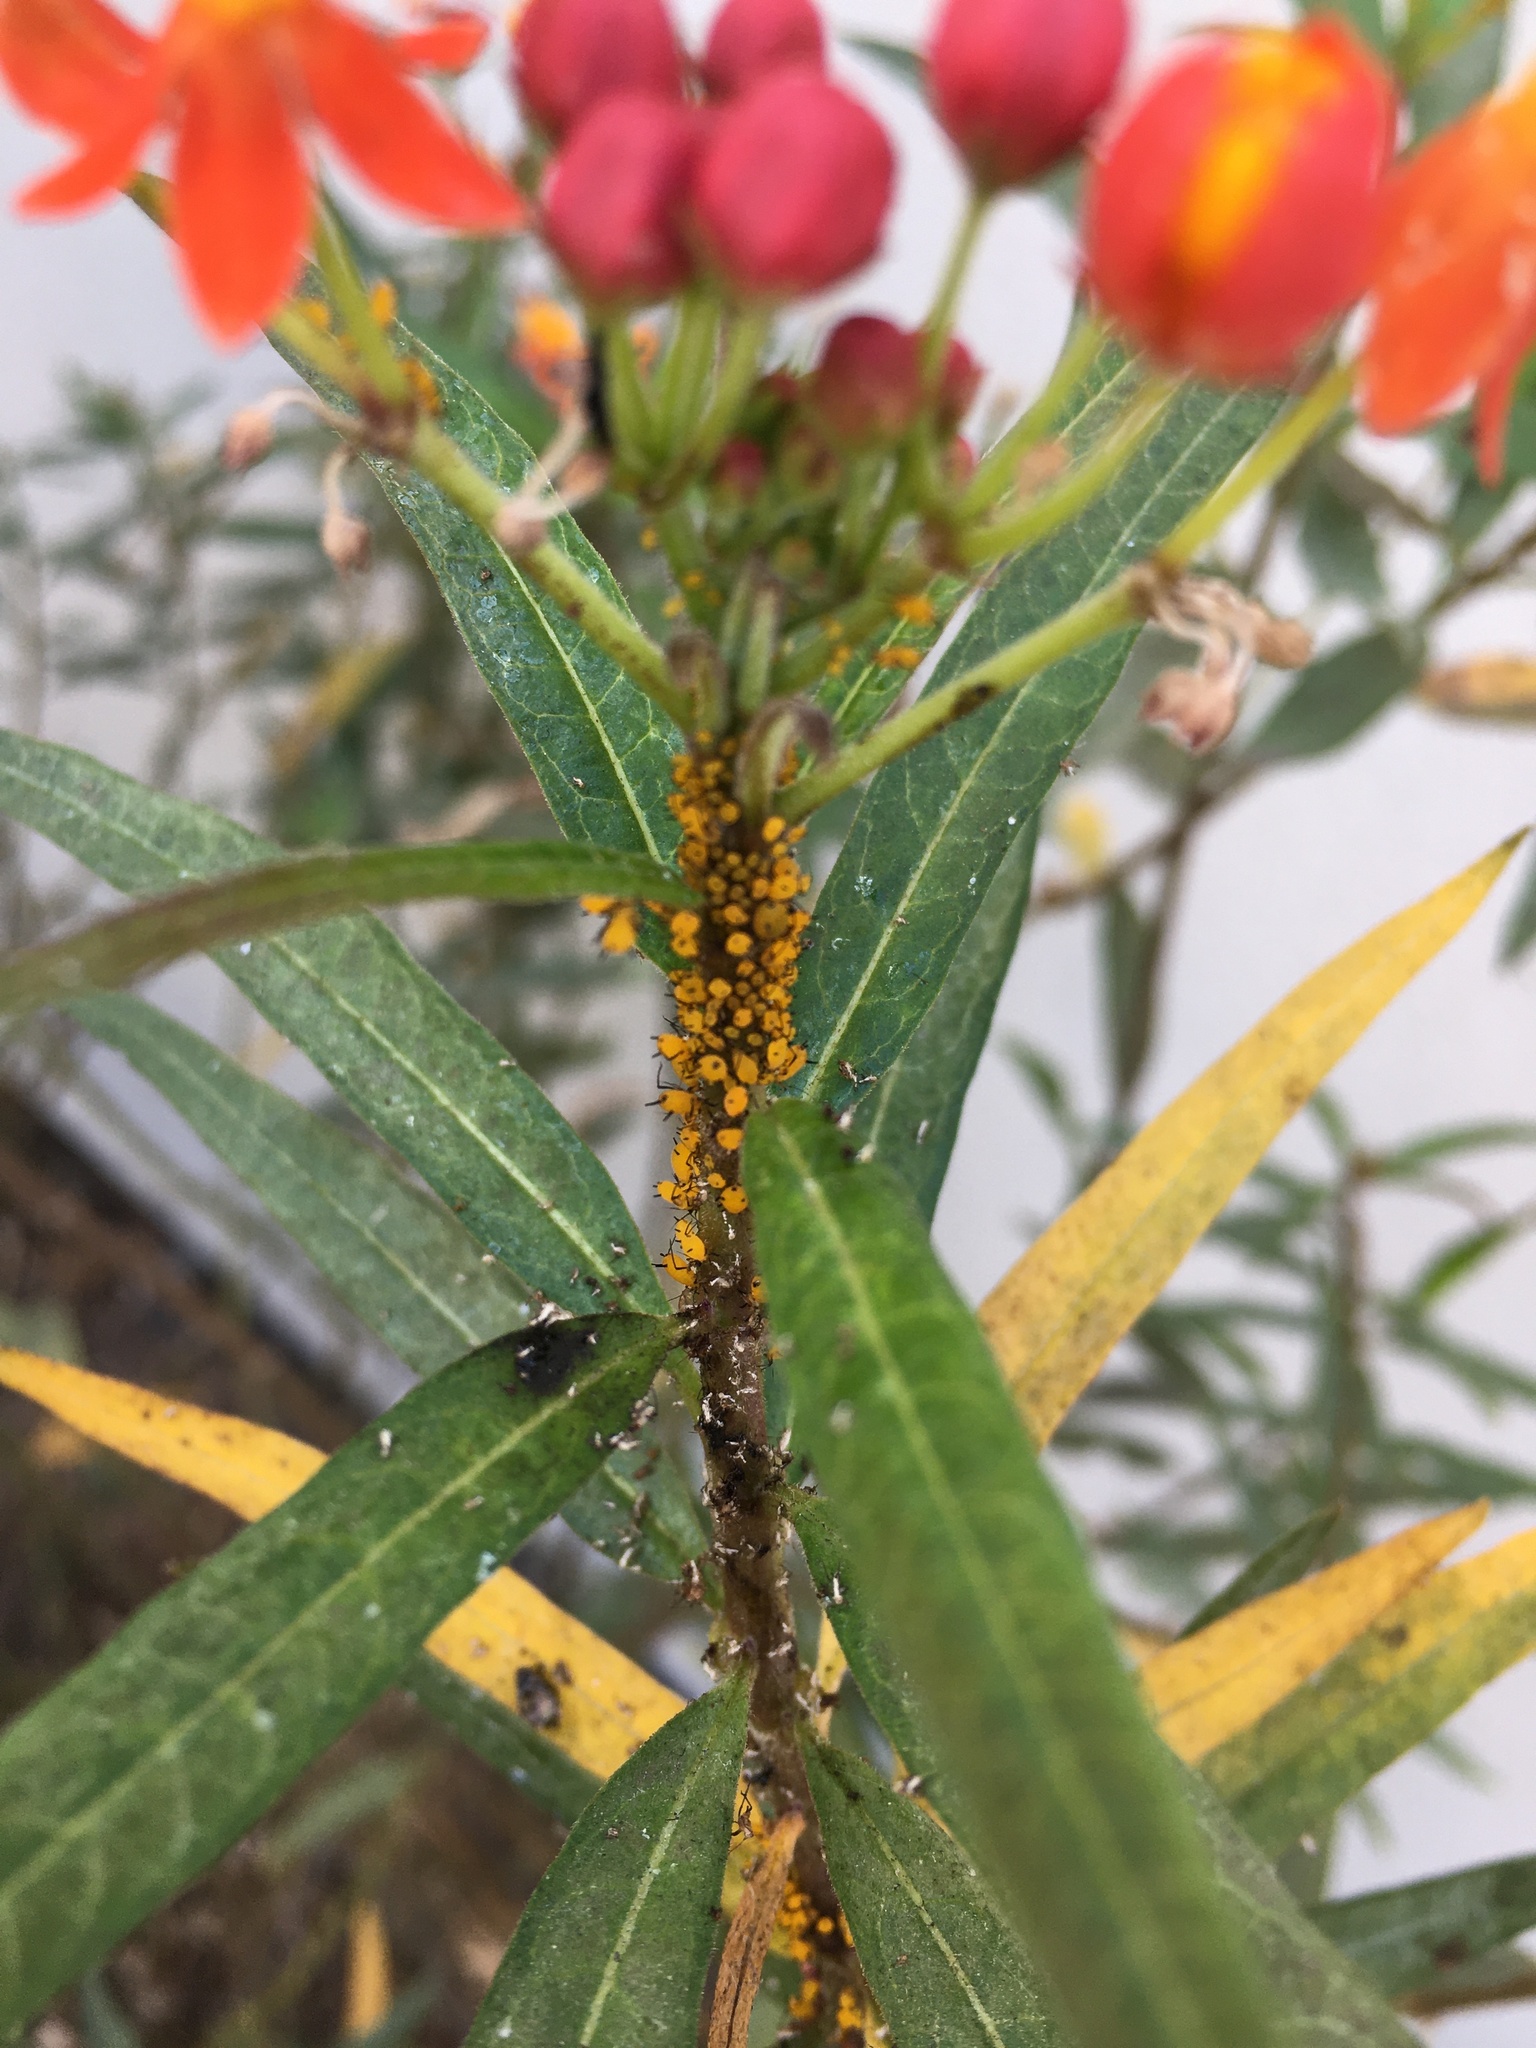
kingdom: Animalia
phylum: Arthropoda
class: Insecta
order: Hemiptera
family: Aphididae
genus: Aphis
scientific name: Aphis nerii
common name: Oleander aphid
